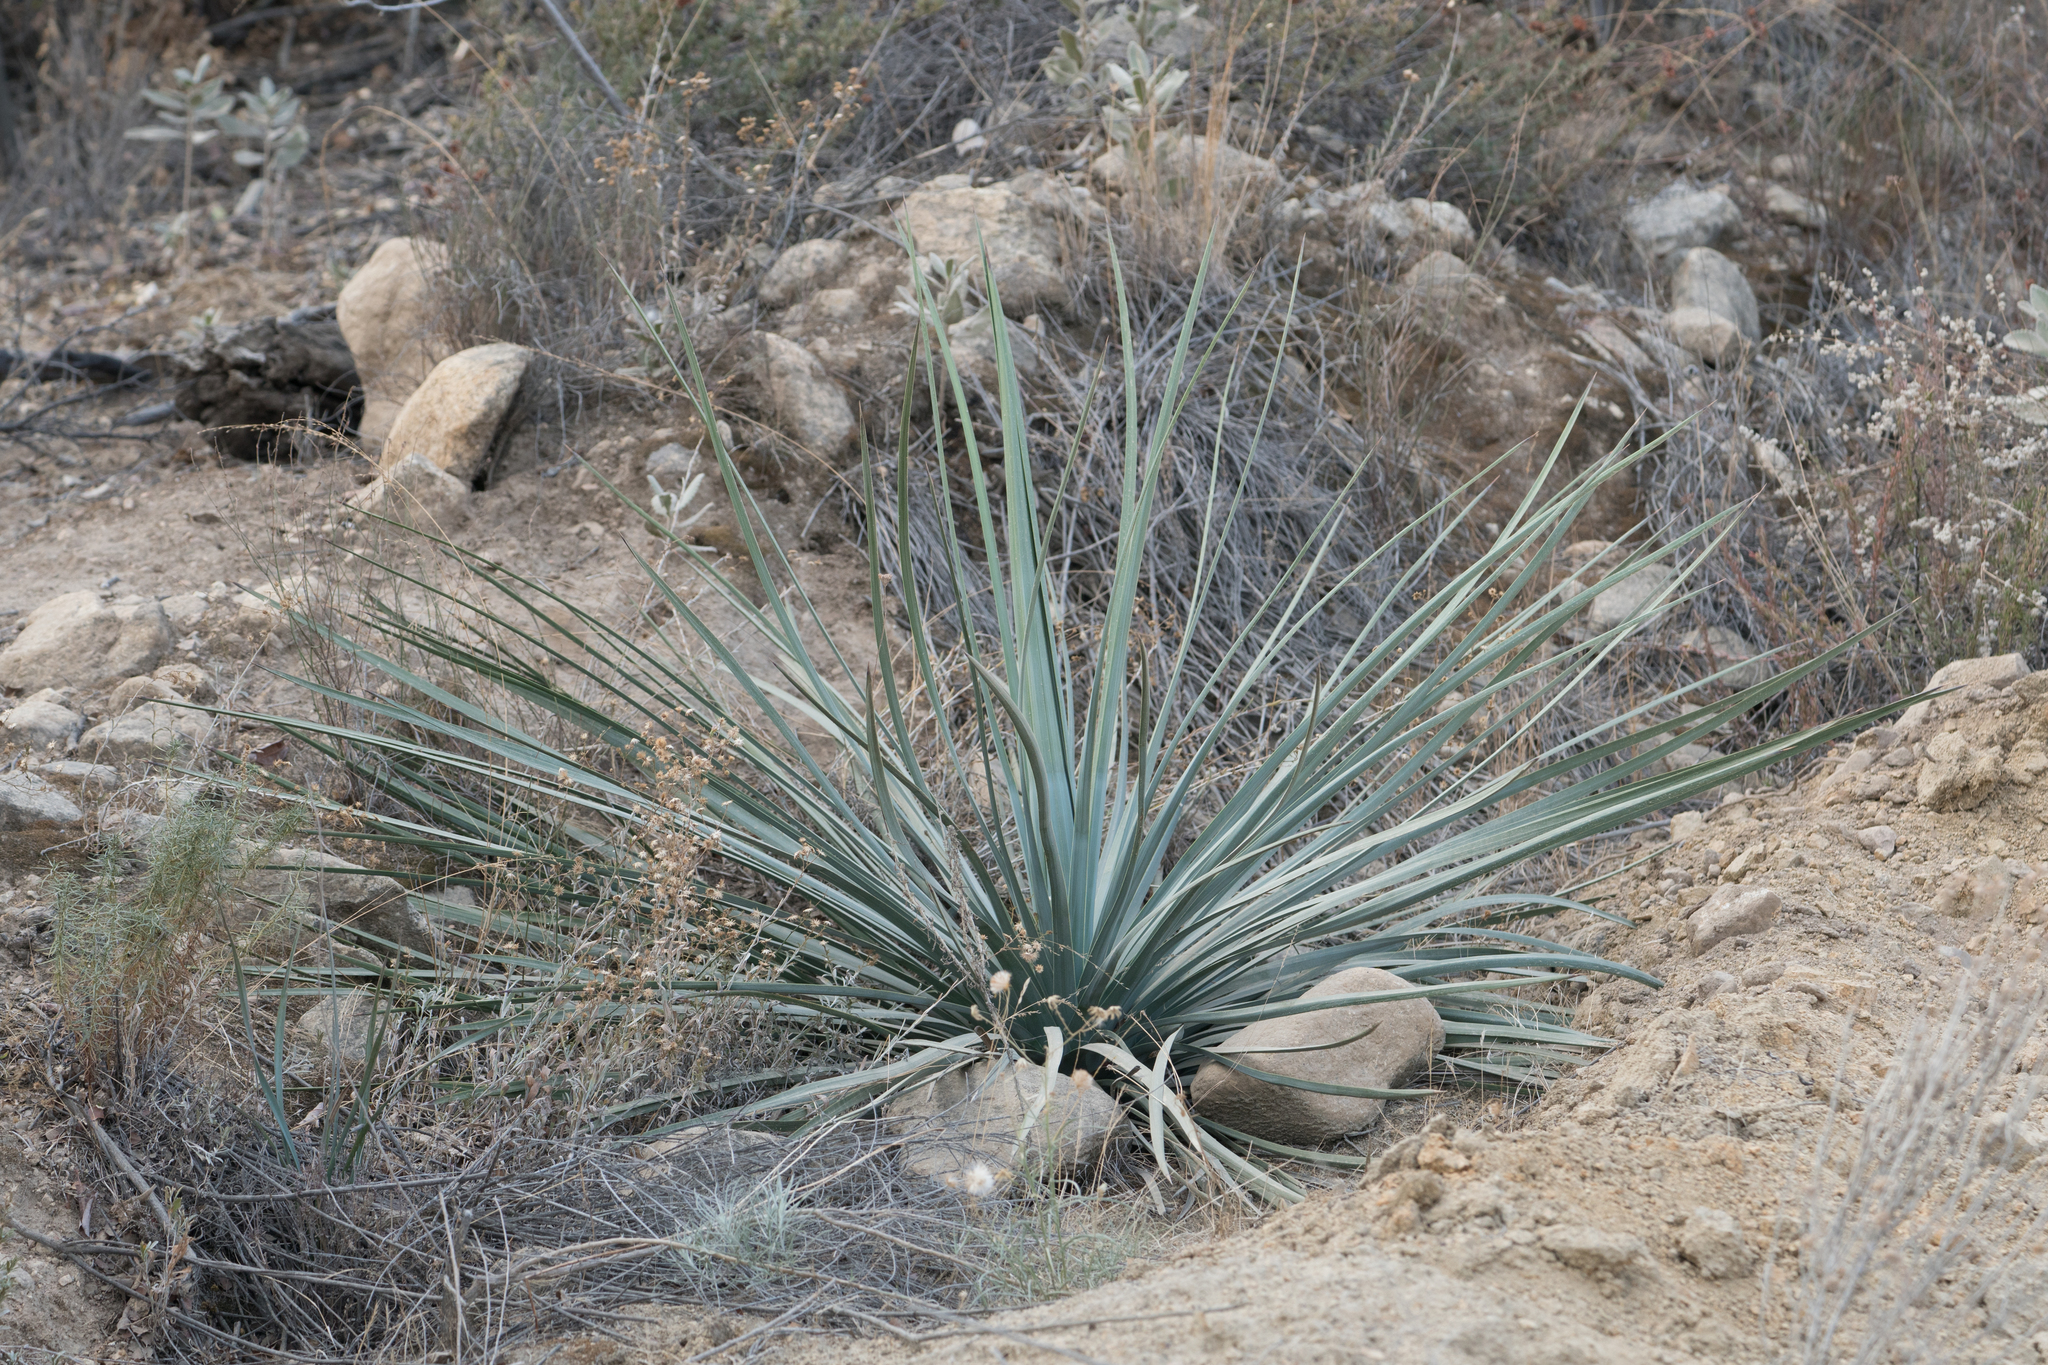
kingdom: Plantae
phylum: Tracheophyta
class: Liliopsida
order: Asparagales
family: Asparagaceae
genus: Hesperoyucca
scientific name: Hesperoyucca whipplei
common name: Our lord's-candle
